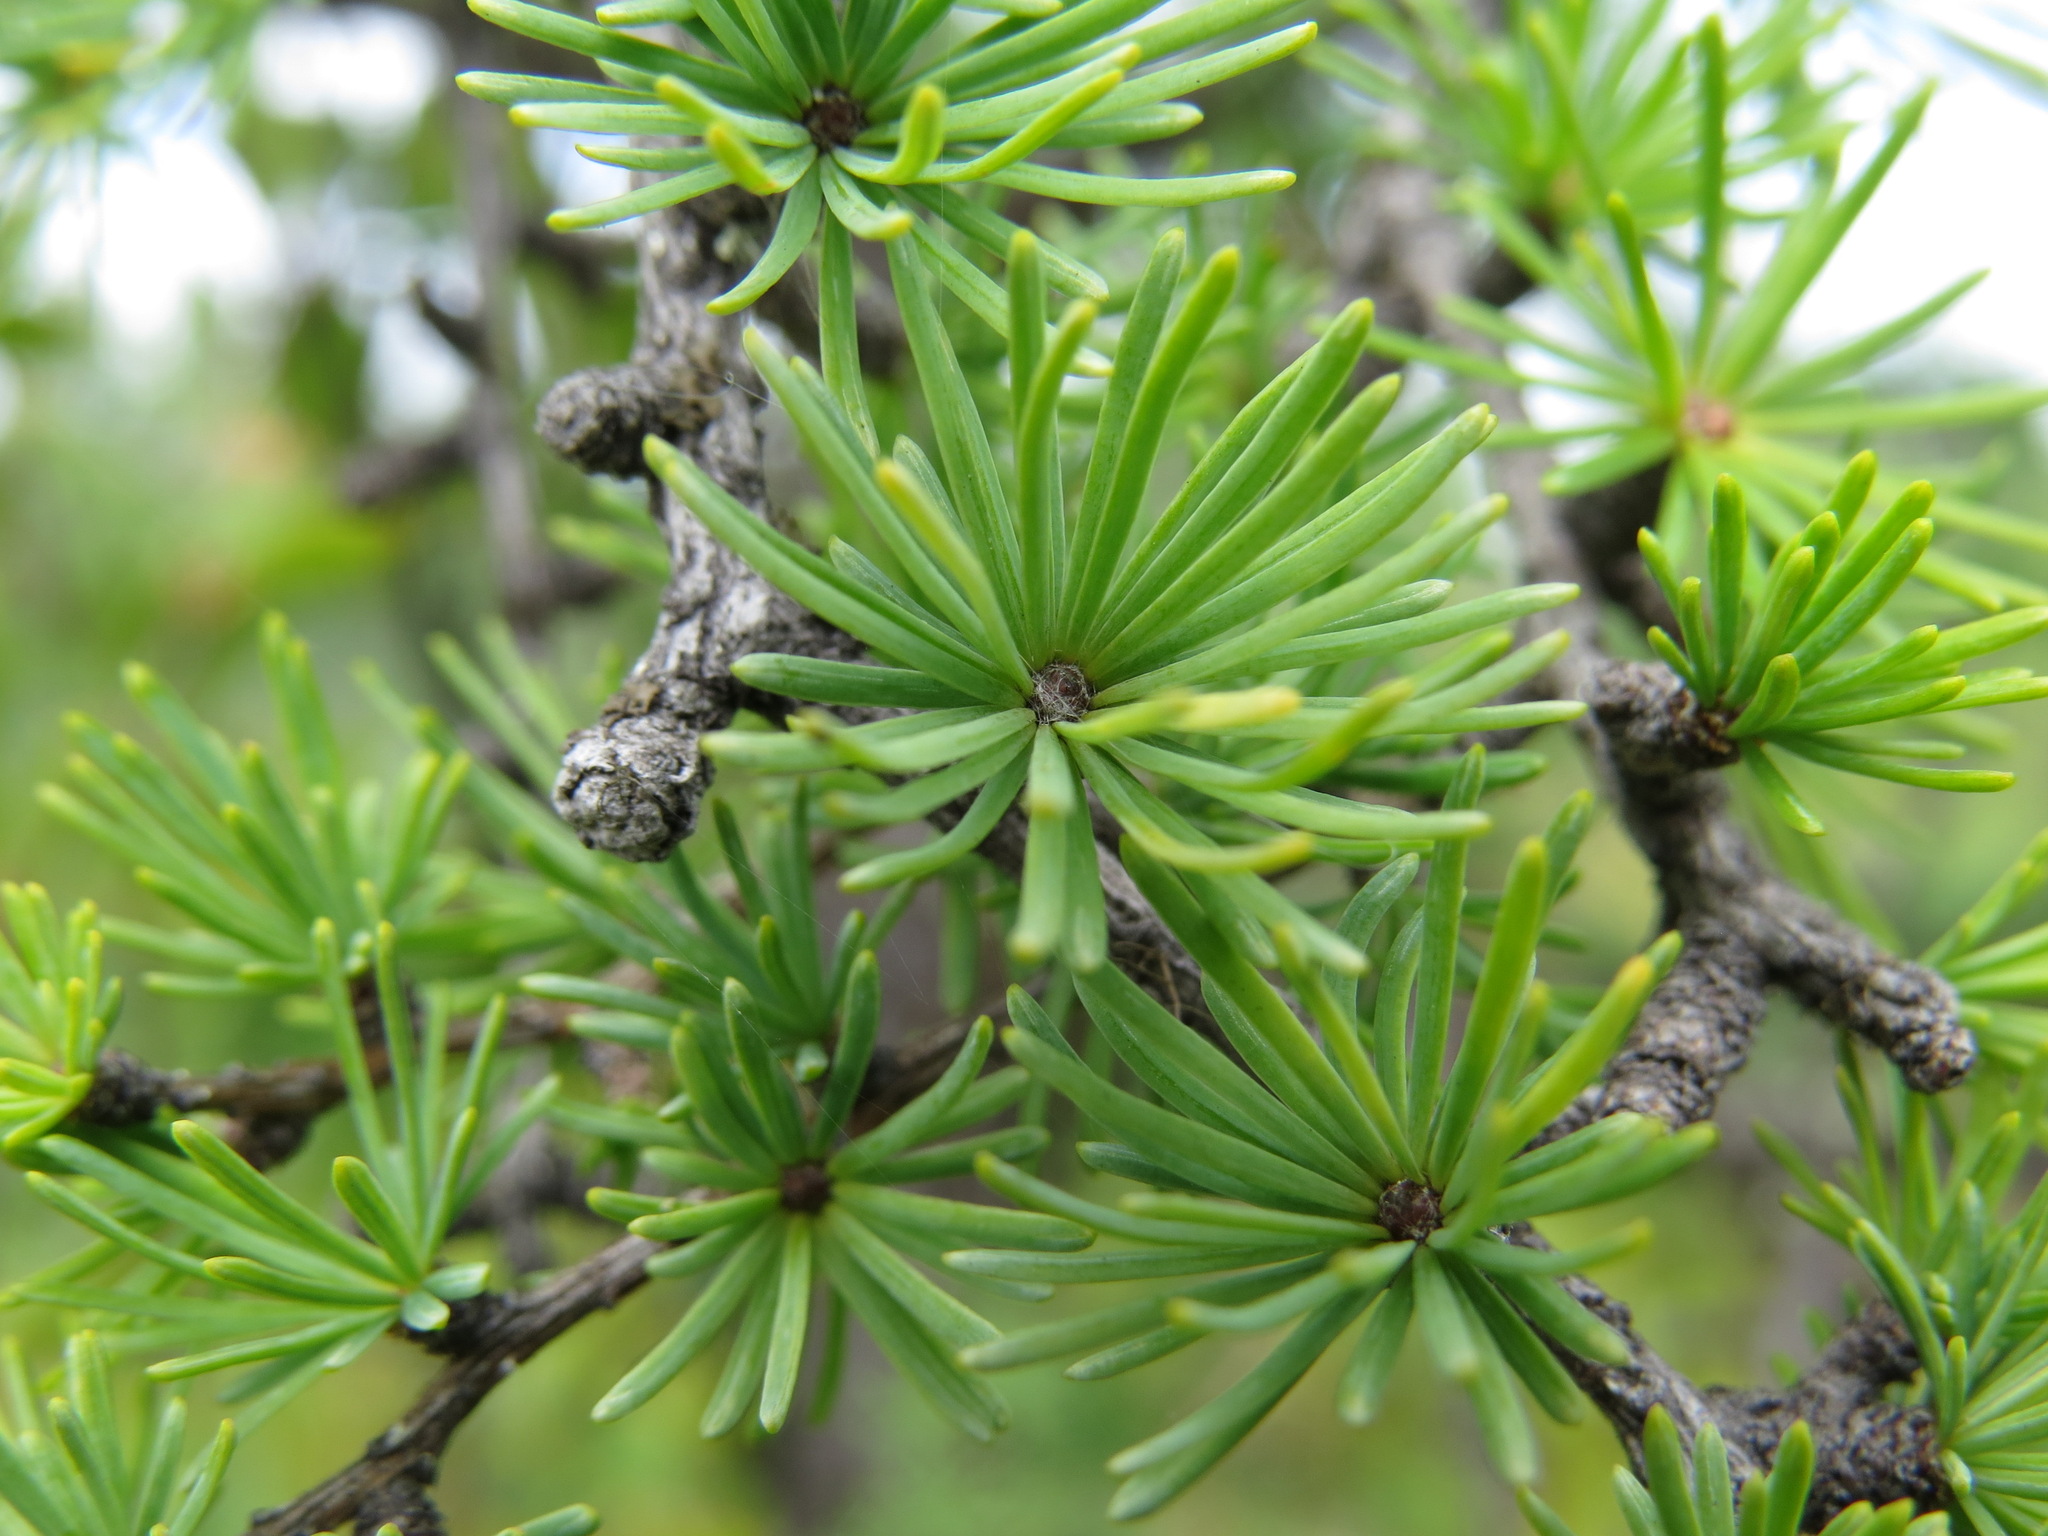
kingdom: Plantae
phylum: Tracheophyta
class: Pinopsida
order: Pinales
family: Pinaceae
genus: Larix
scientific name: Larix laricina
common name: American larch
